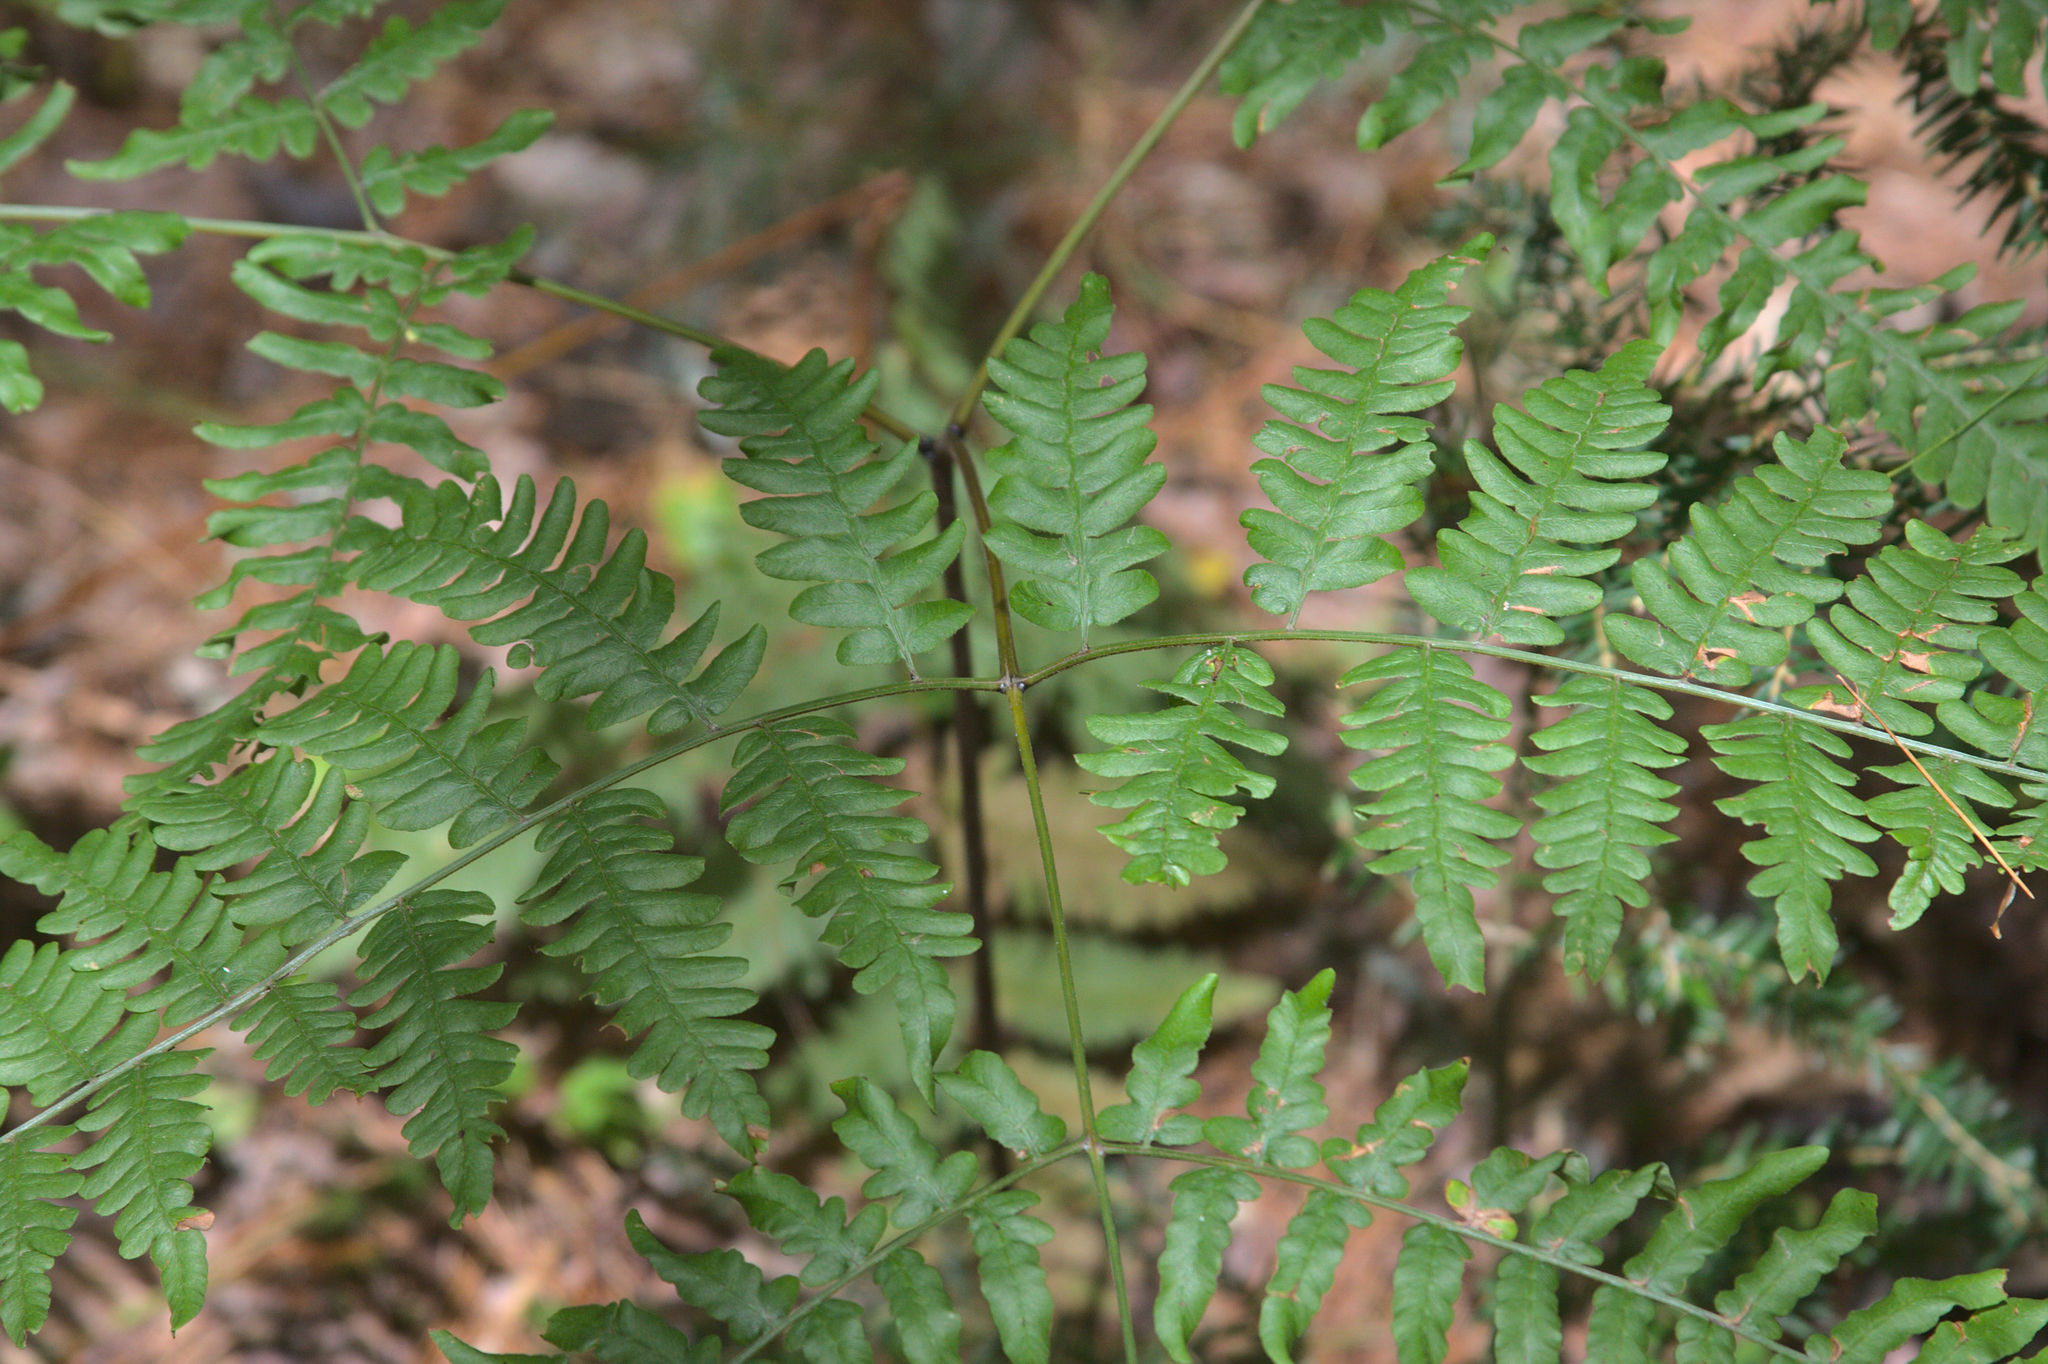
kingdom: Plantae
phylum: Tracheophyta
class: Polypodiopsida
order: Polypodiales
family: Dennstaedtiaceae
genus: Pteridium
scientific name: Pteridium aquilinum
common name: Bracken
